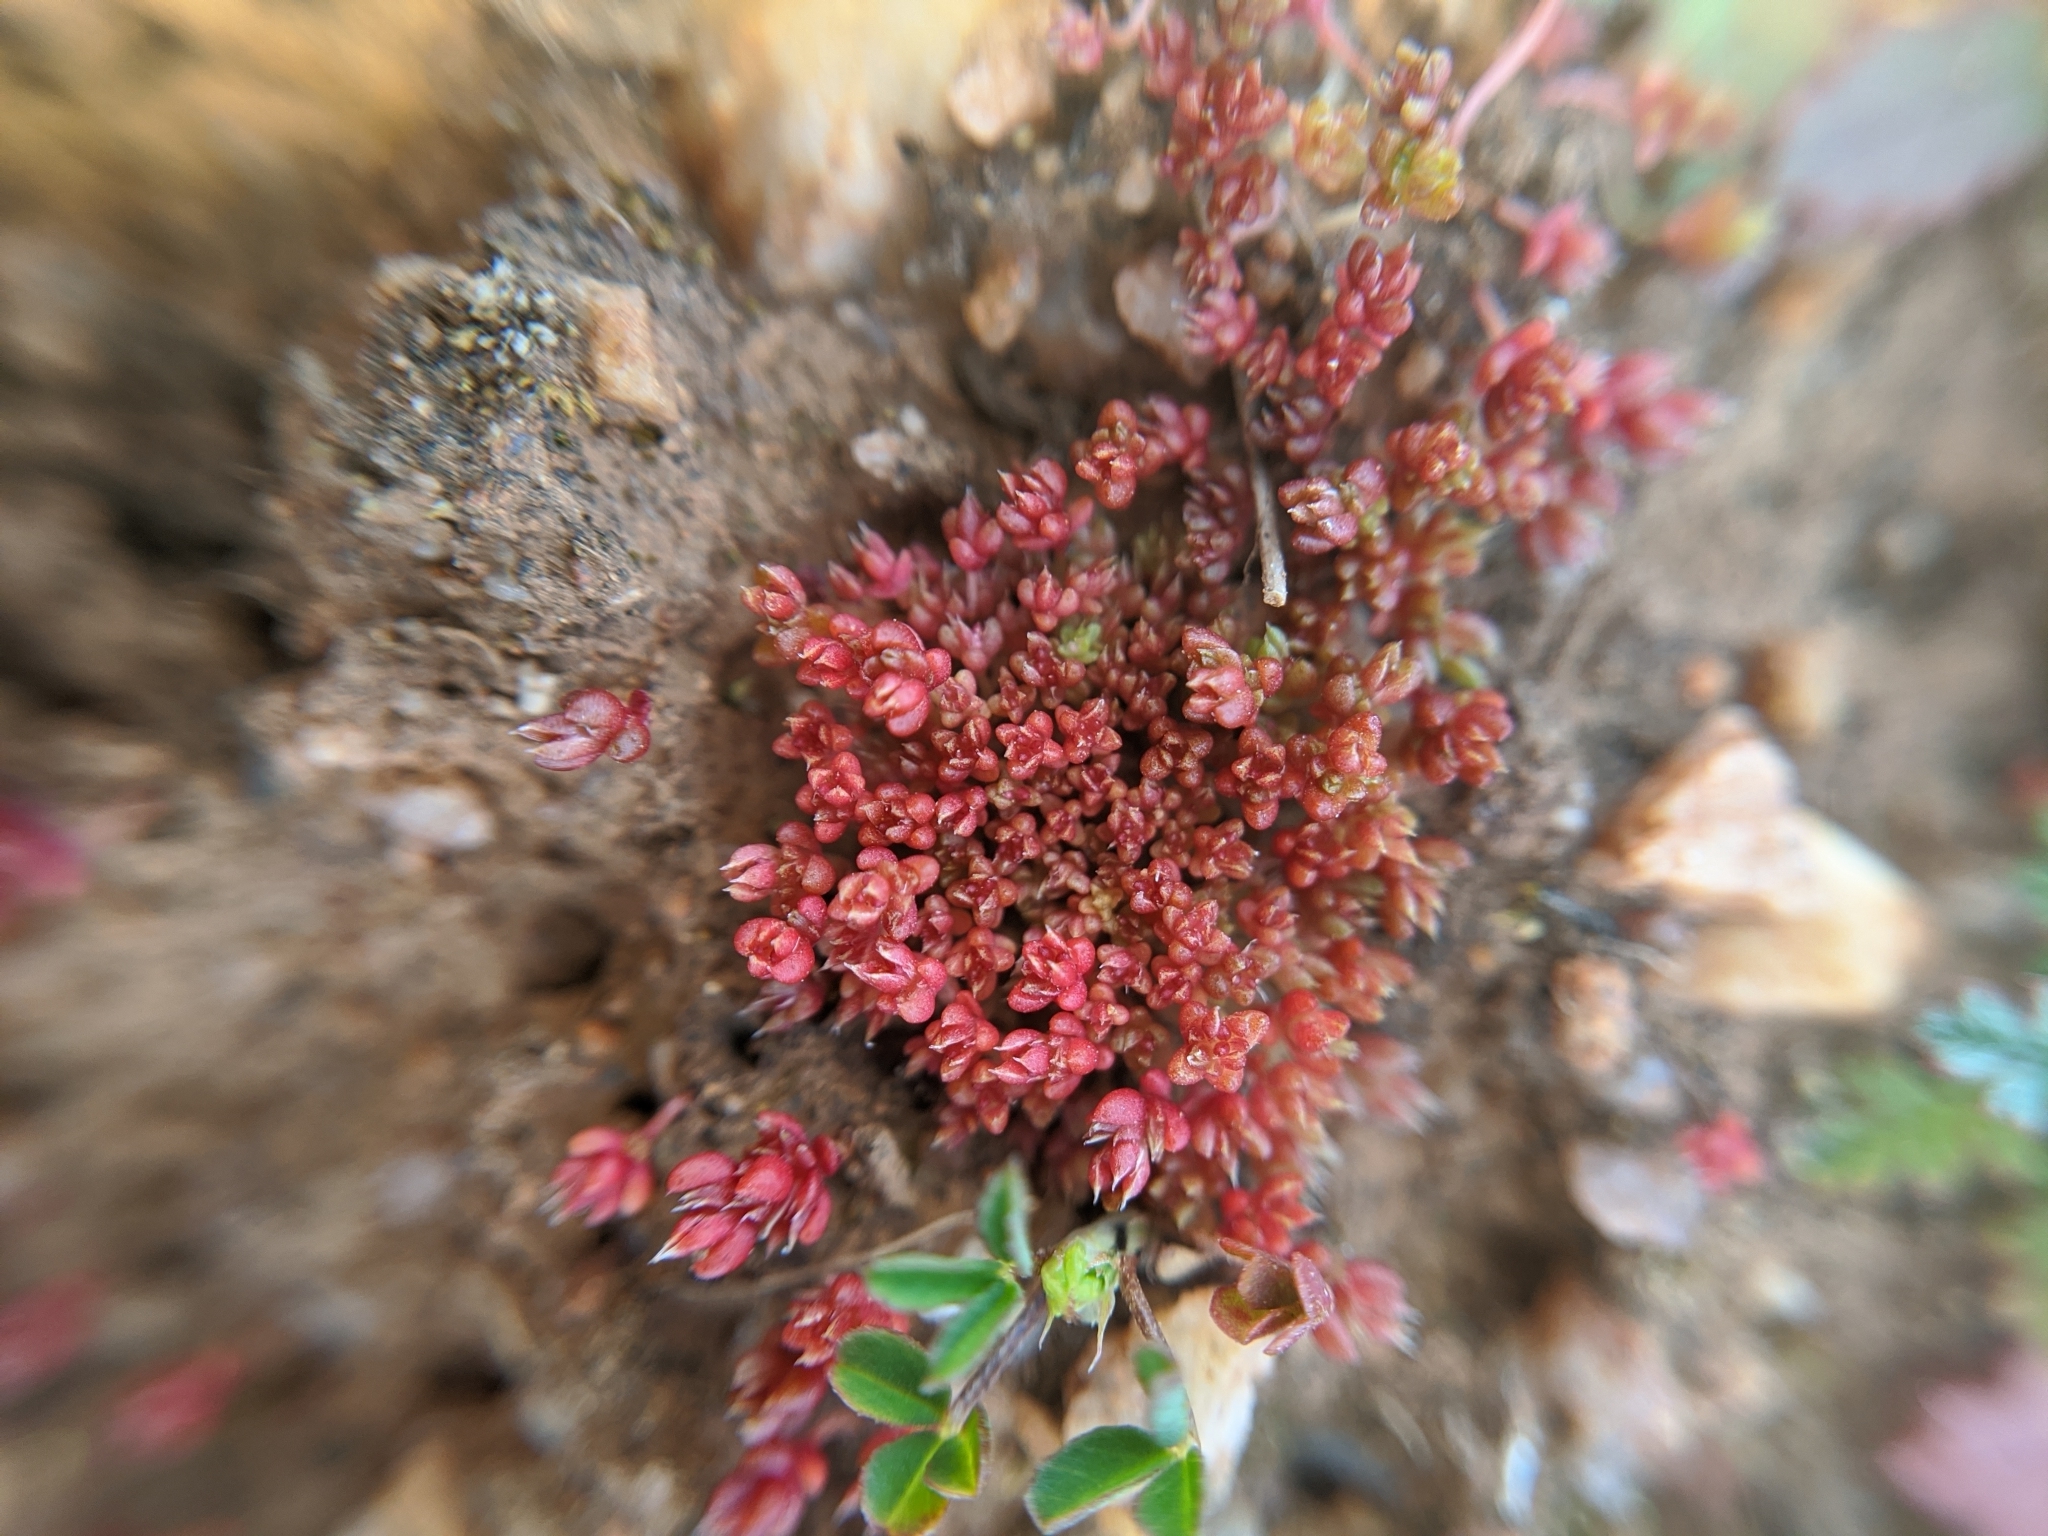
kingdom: Plantae
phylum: Tracheophyta
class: Magnoliopsida
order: Saxifragales
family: Crassulaceae
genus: Crassula
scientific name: Crassula tillaea
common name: Mossy stonecrop
